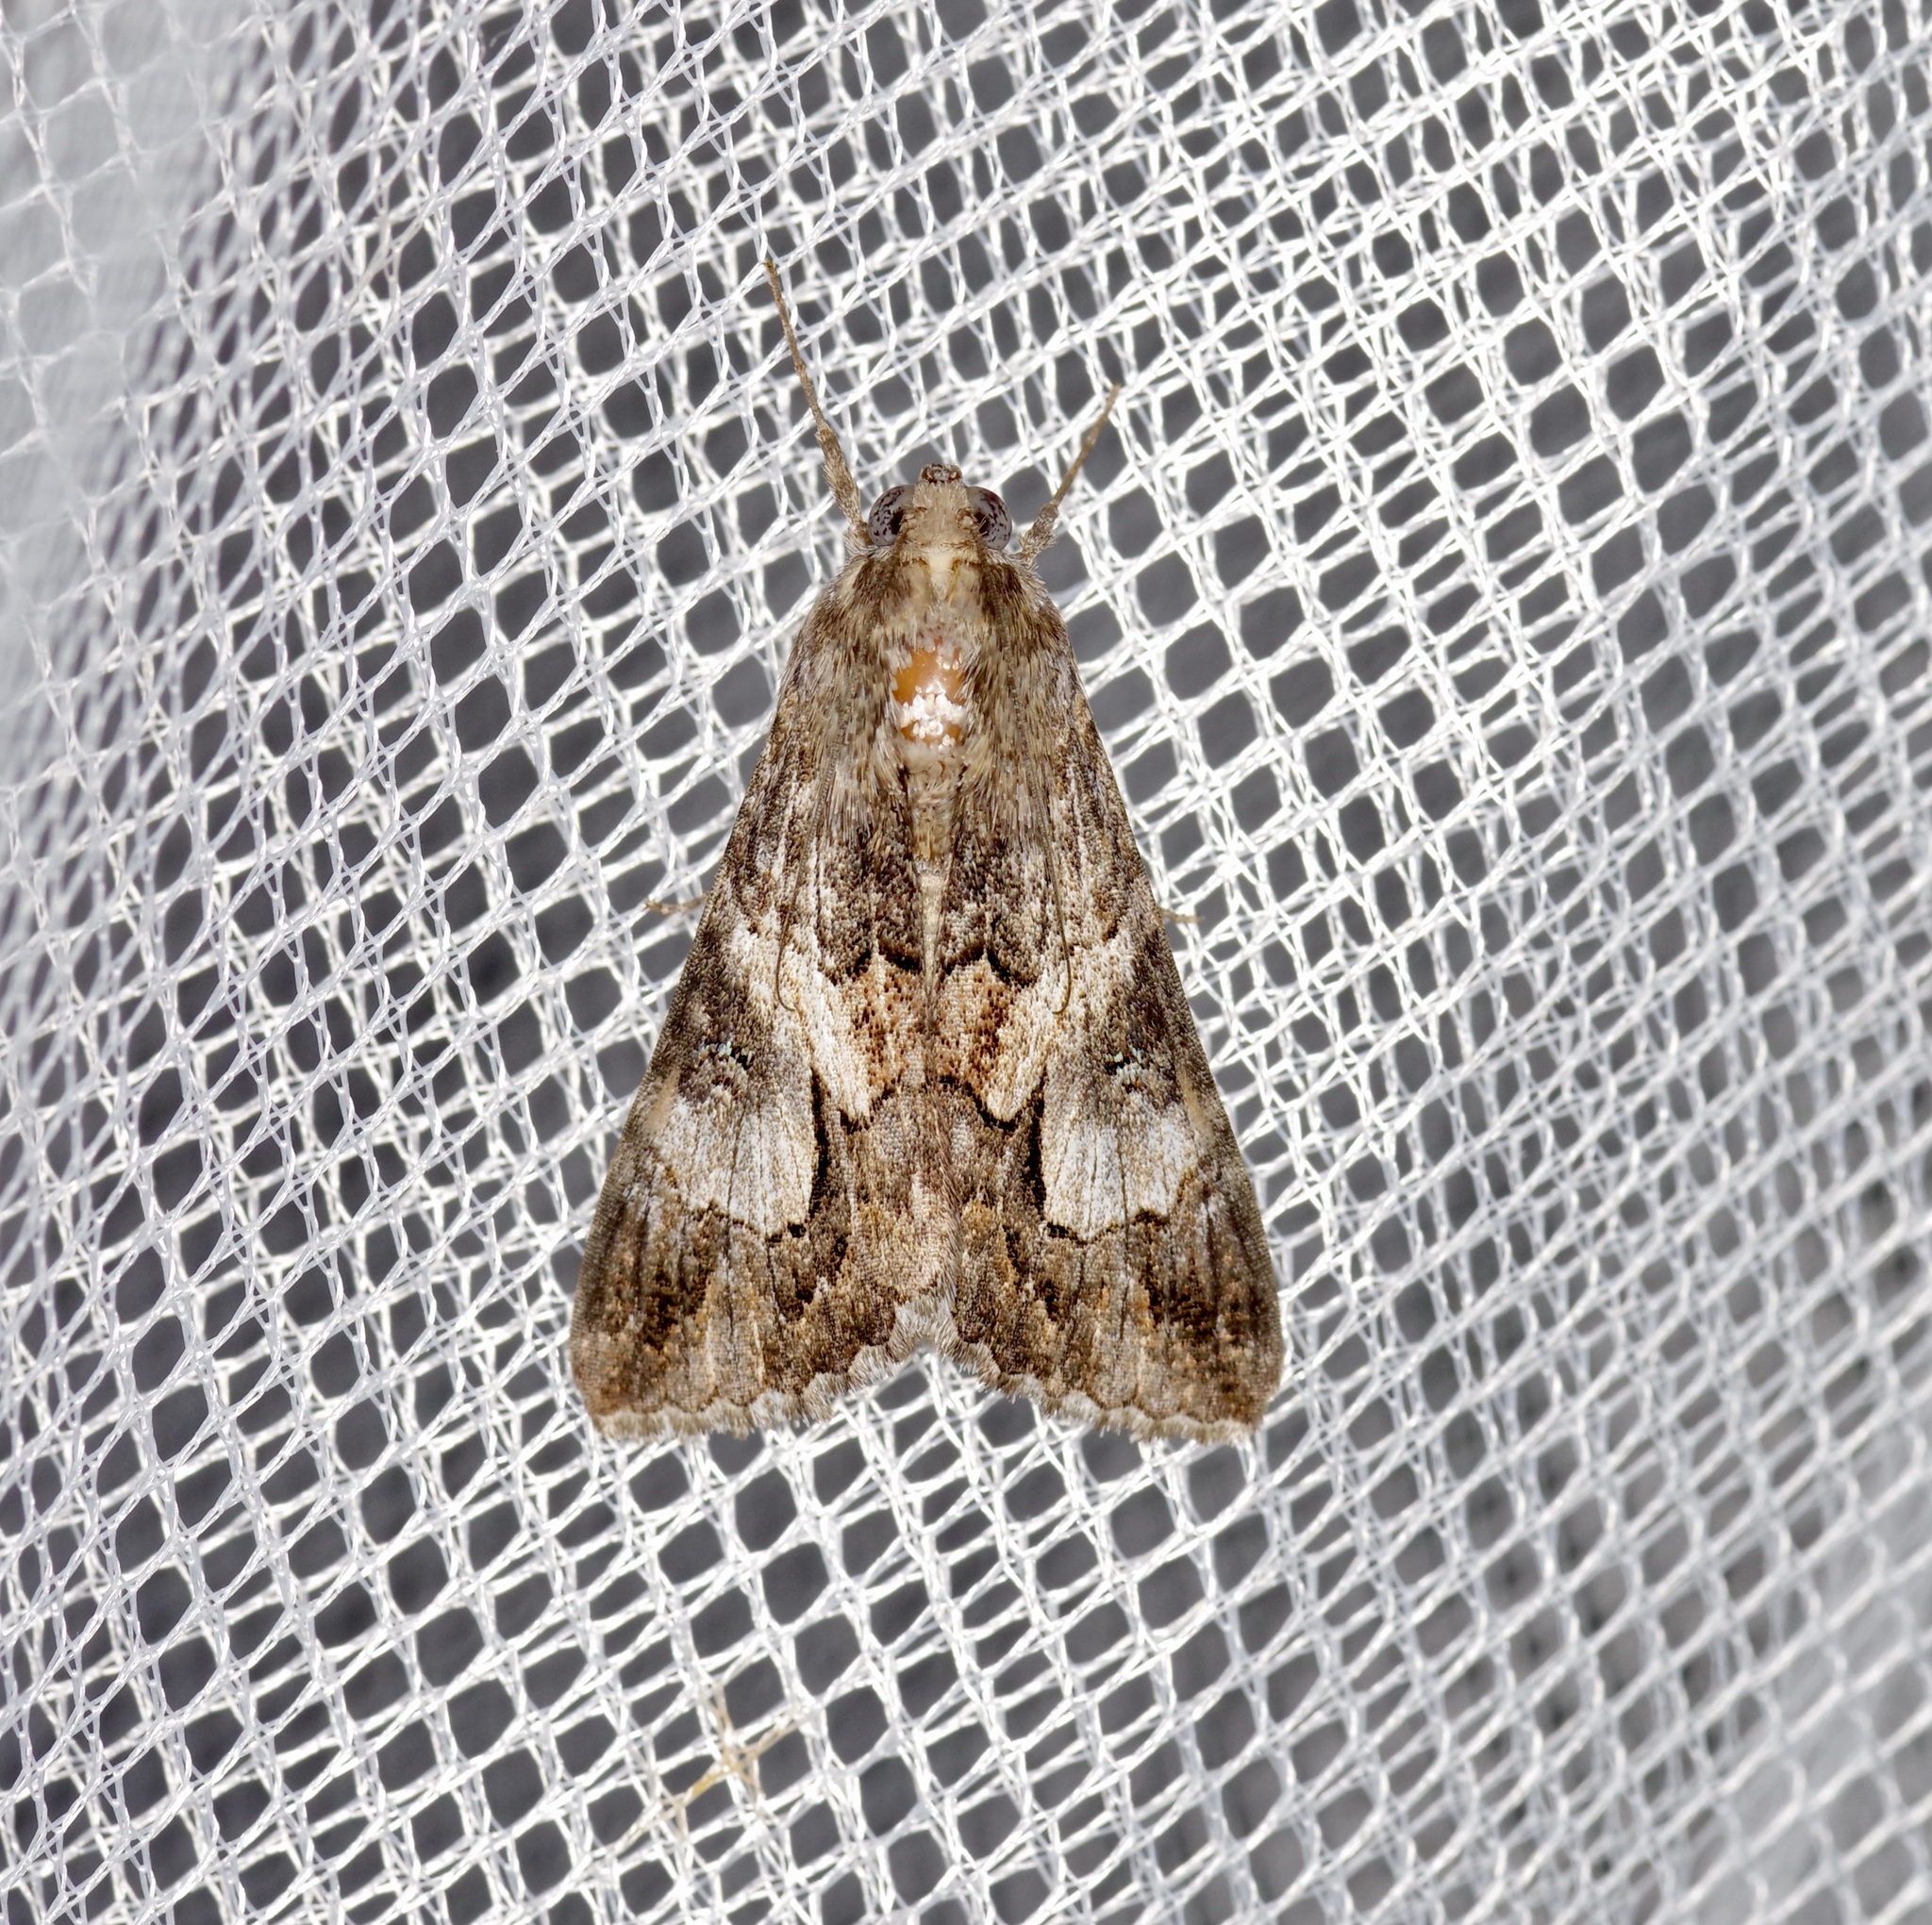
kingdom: Animalia
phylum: Arthropoda
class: Insecta
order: Lepidoptera
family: Erebidae
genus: Melipotis
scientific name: Melipotis jucunda
